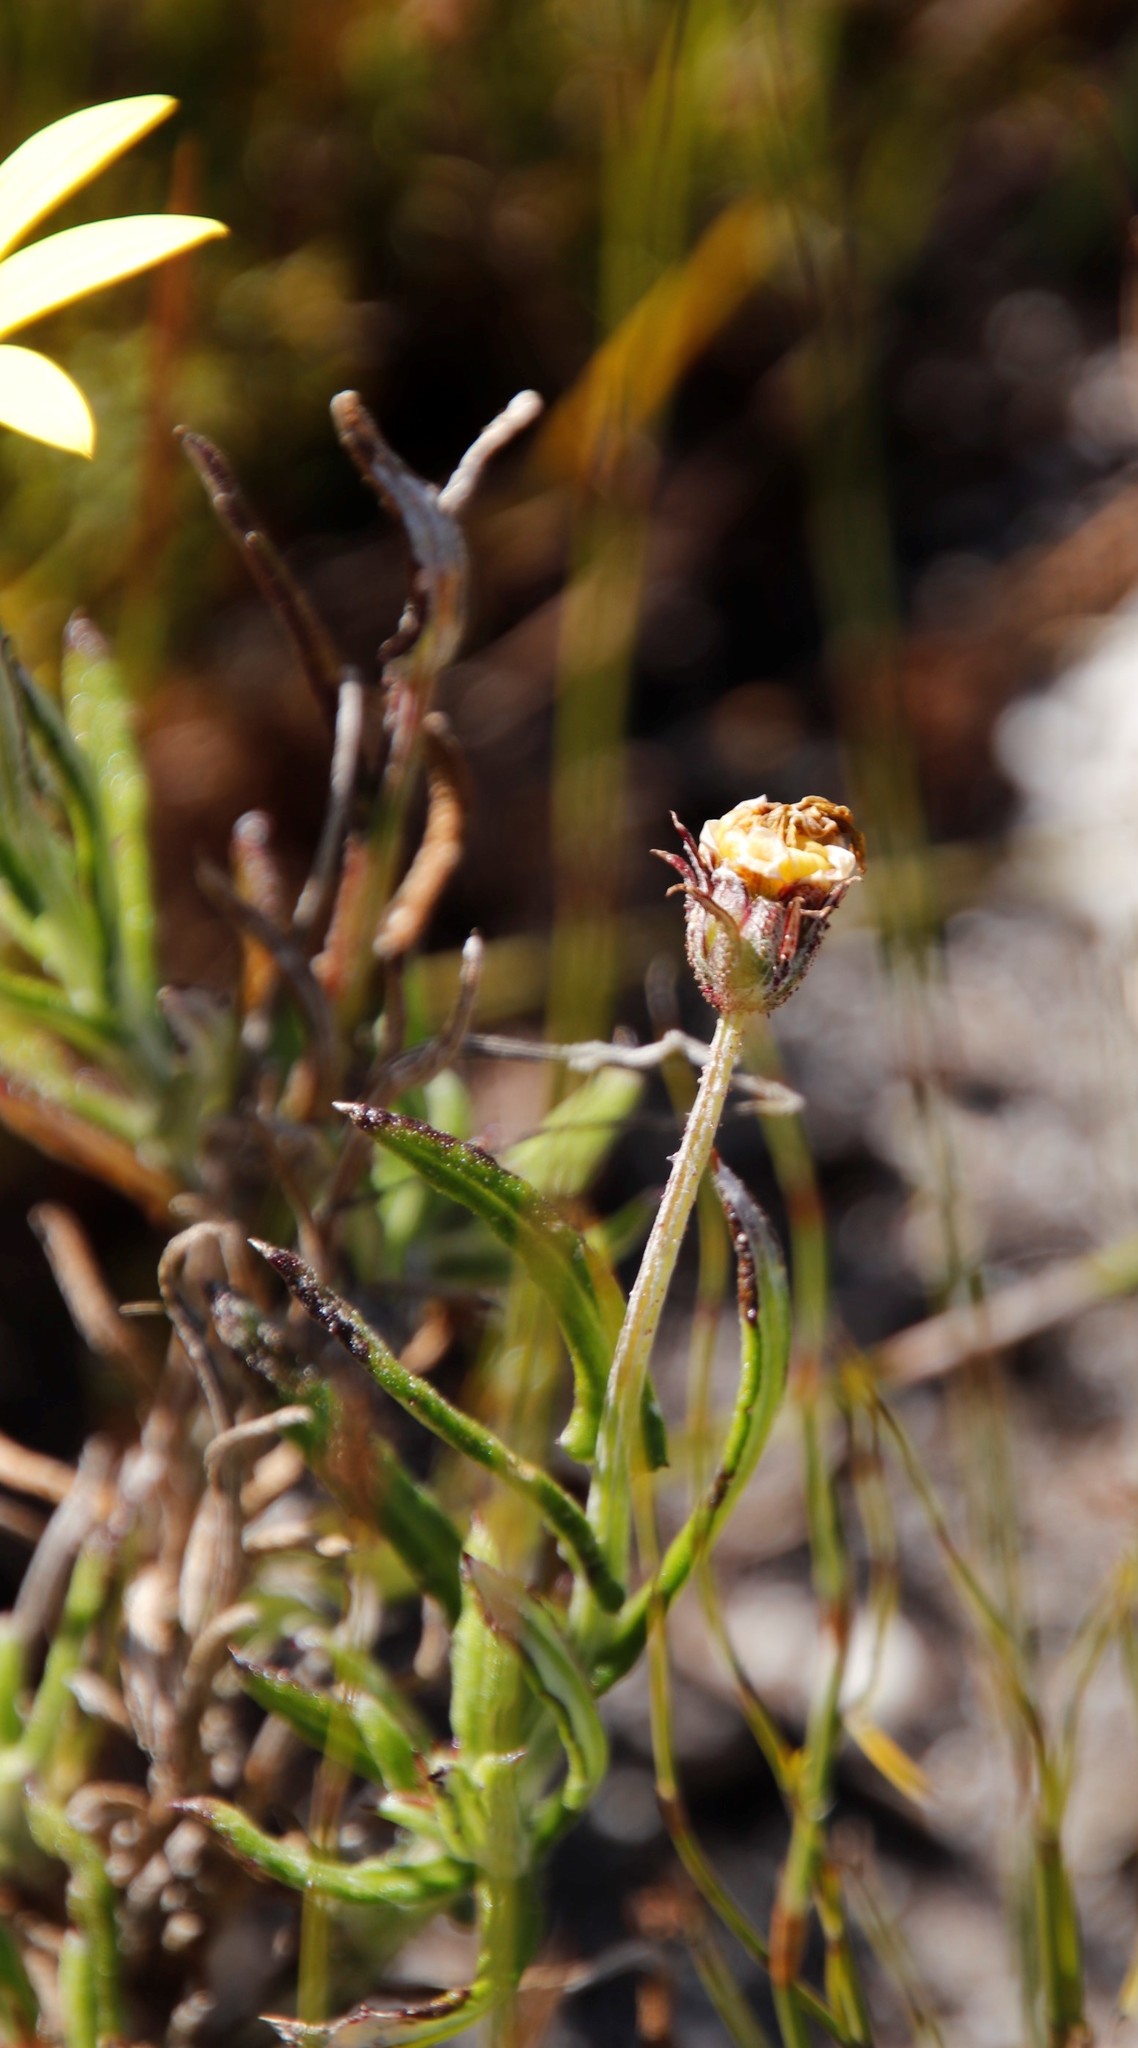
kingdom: Plantae
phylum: Tracheophyta
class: Magnoliopsida
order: Asterales
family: Asteraceae
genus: Arctotis
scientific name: Arctotis scabra
